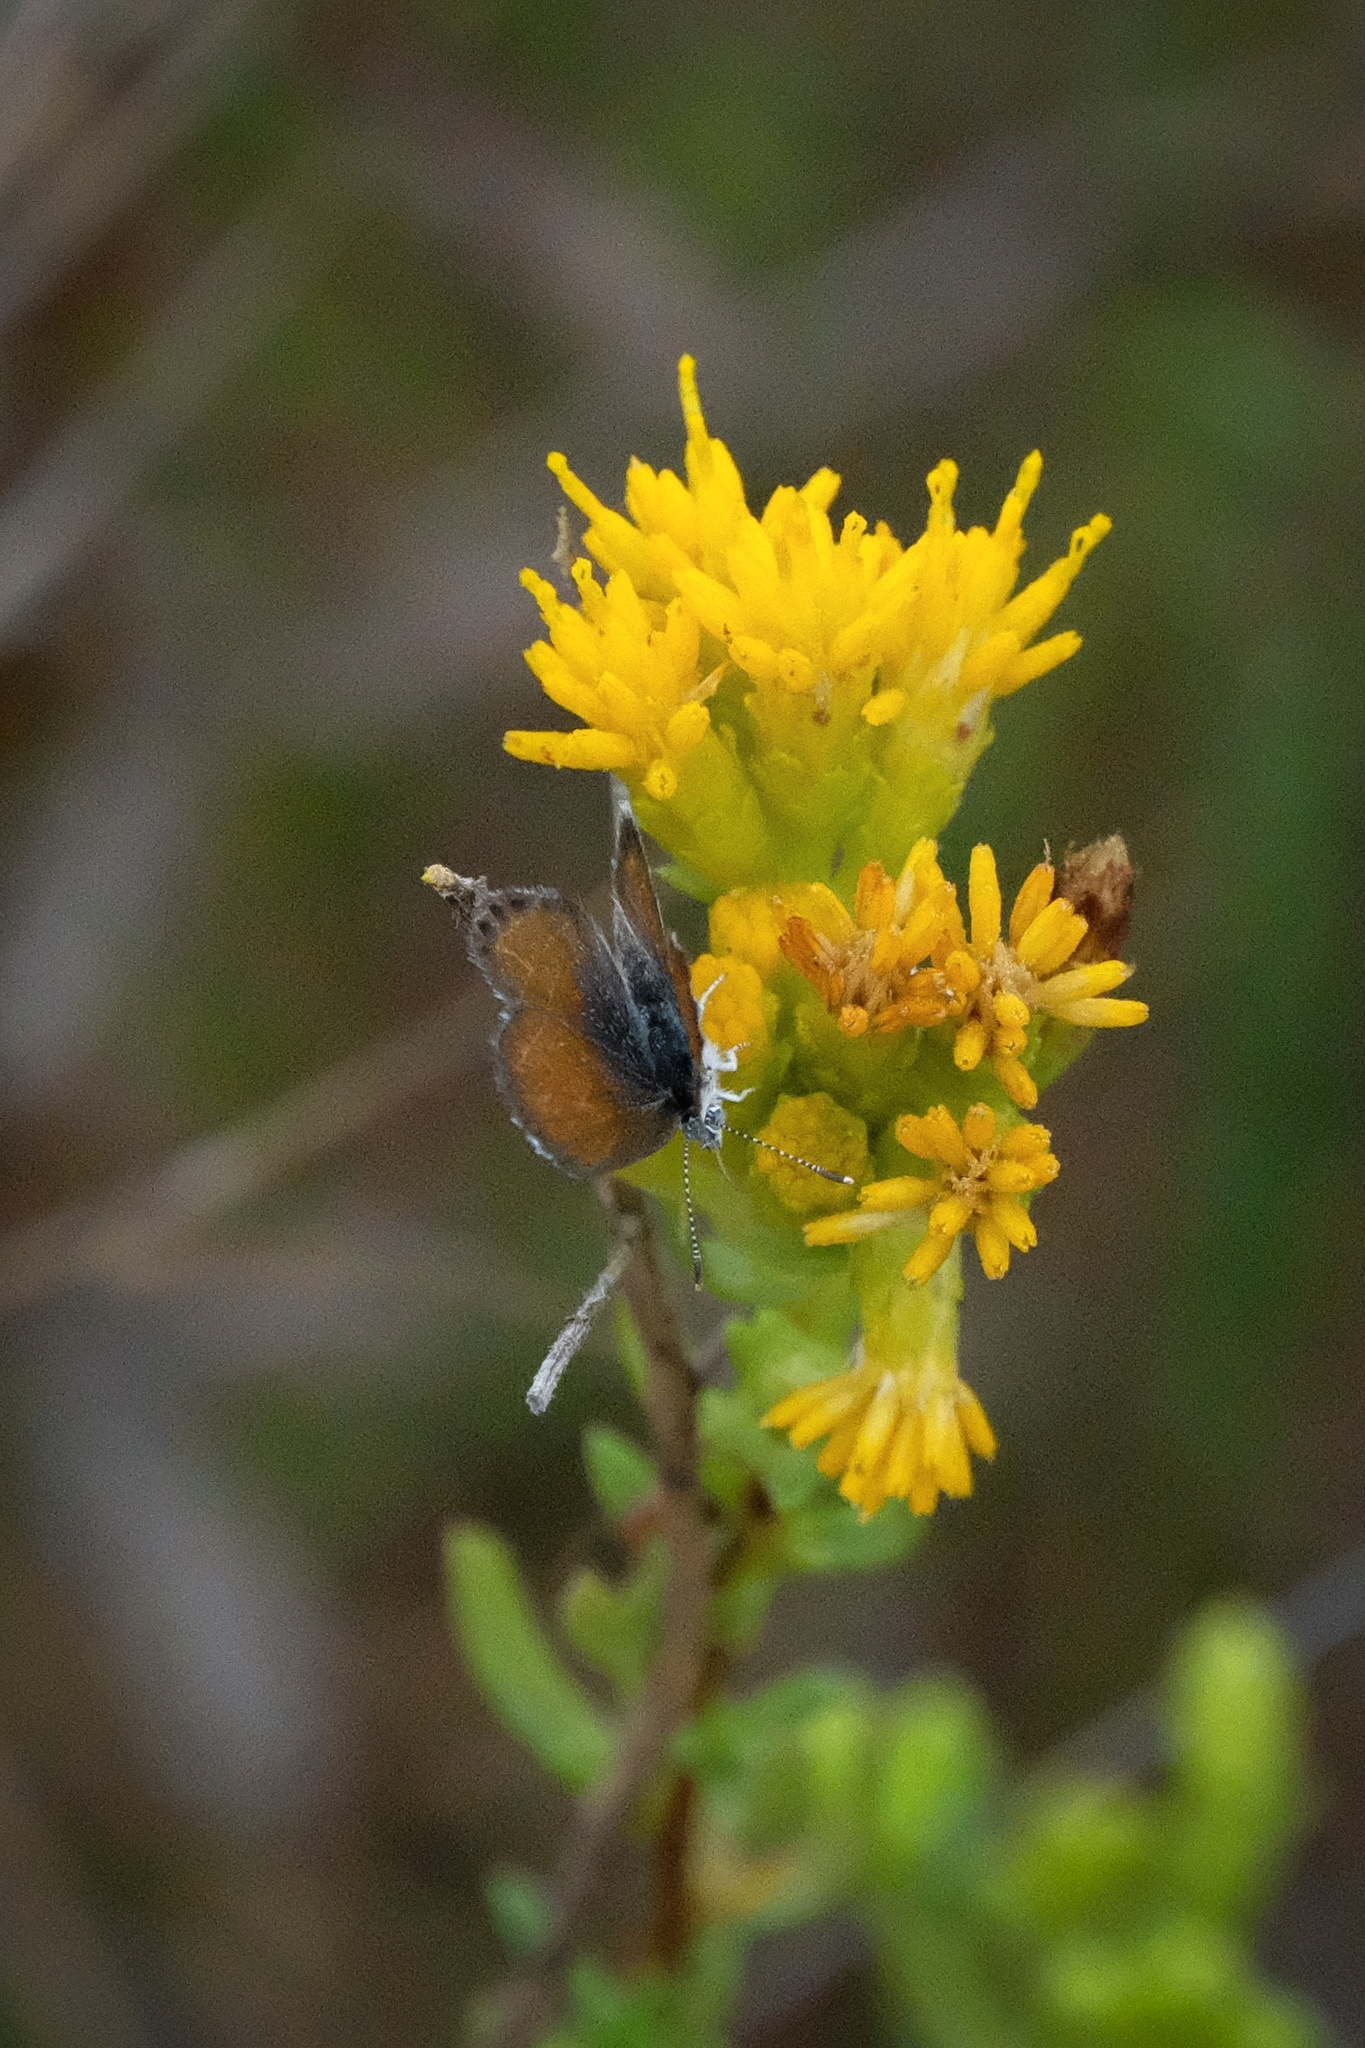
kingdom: Animalia
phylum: Arthropoda
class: Insecta
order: Lepidoptera
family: Lycaenidae
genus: Brephidium
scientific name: Brephidium exilis
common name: Pygmy blue
